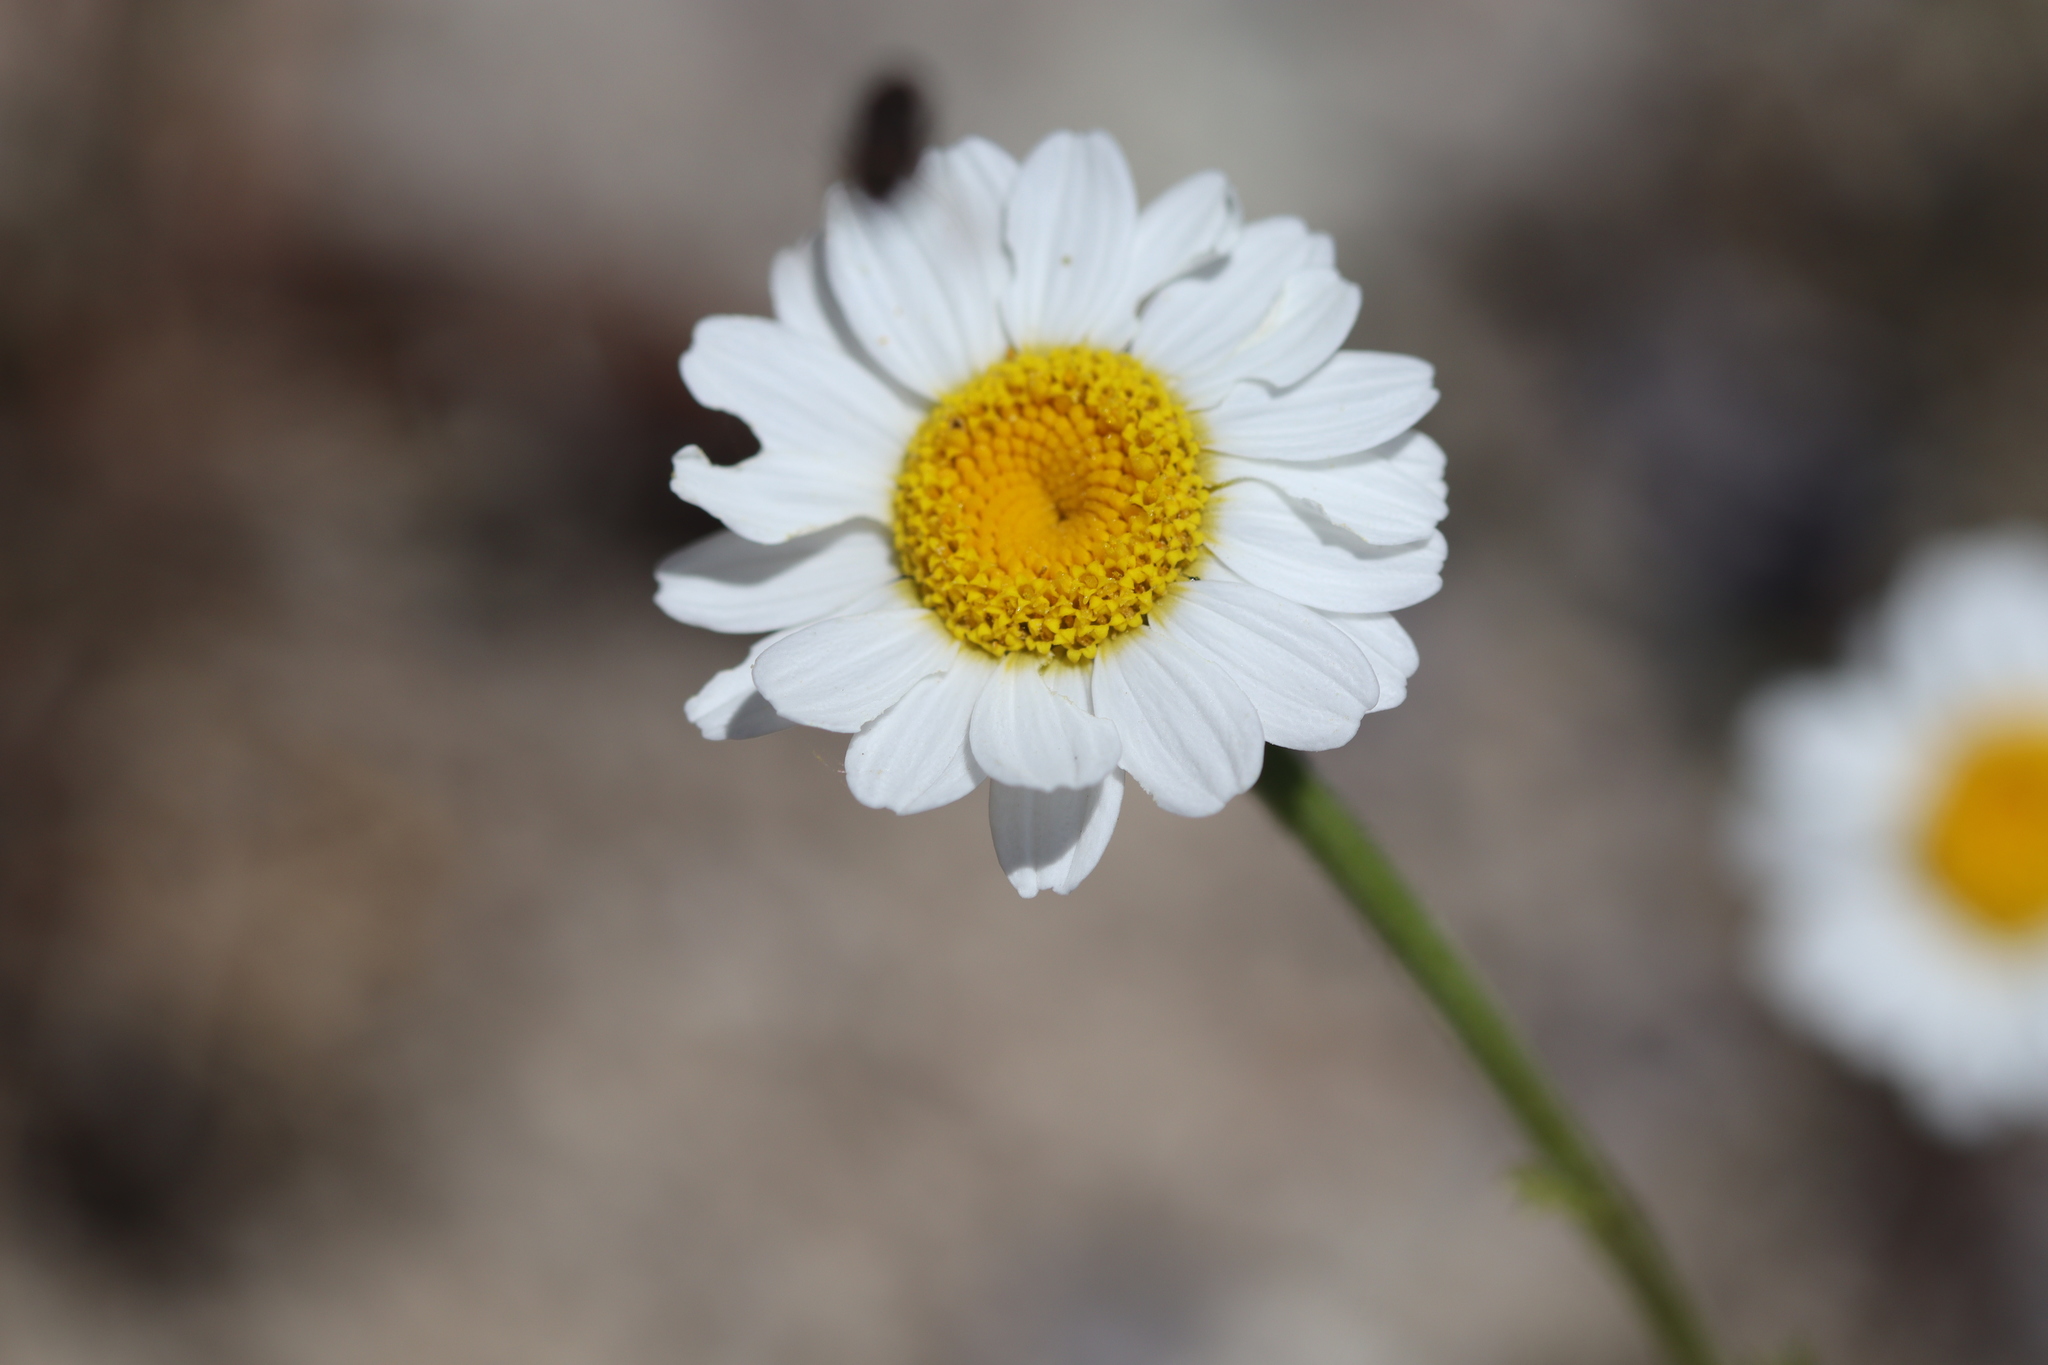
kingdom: Plantae
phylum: Tracheophyta
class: Magnoliopsida
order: Asterales
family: Asteraceae
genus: Cota
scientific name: Cota austriaca
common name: Austrian chamomile
